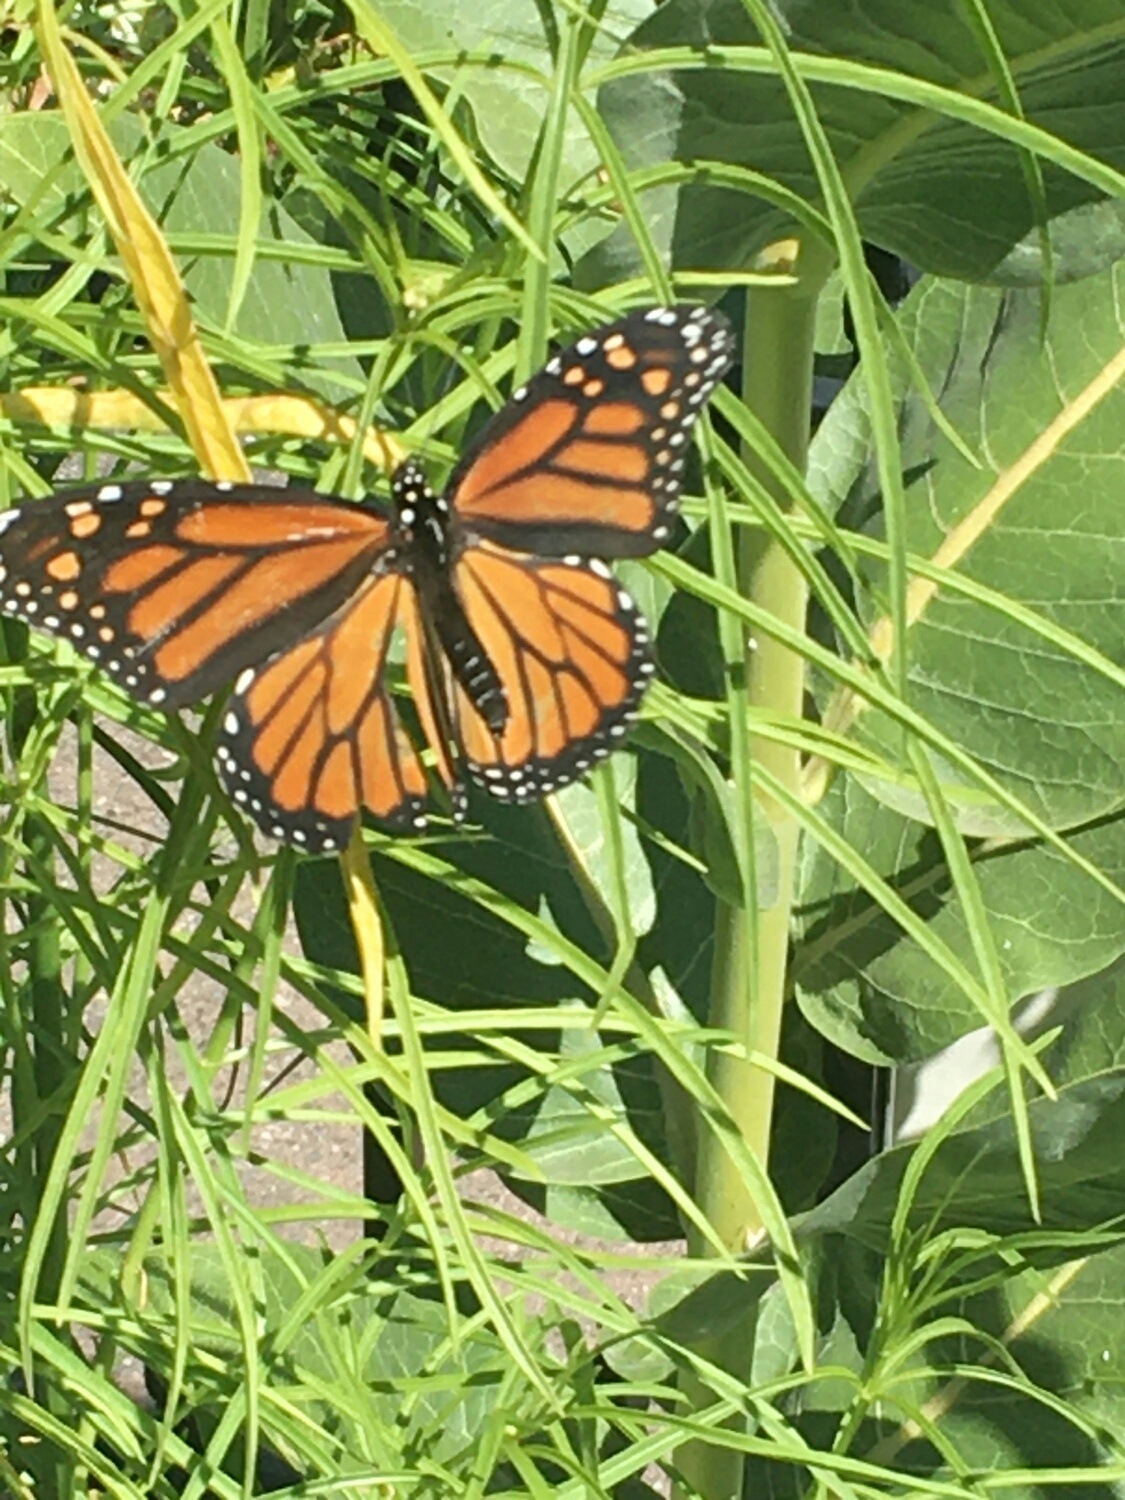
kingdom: Animalia
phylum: Arthropoda
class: Insecta
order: Lepidoptera
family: Nymphalidae
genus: Danaus
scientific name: Danaus plexippus
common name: Monarch
